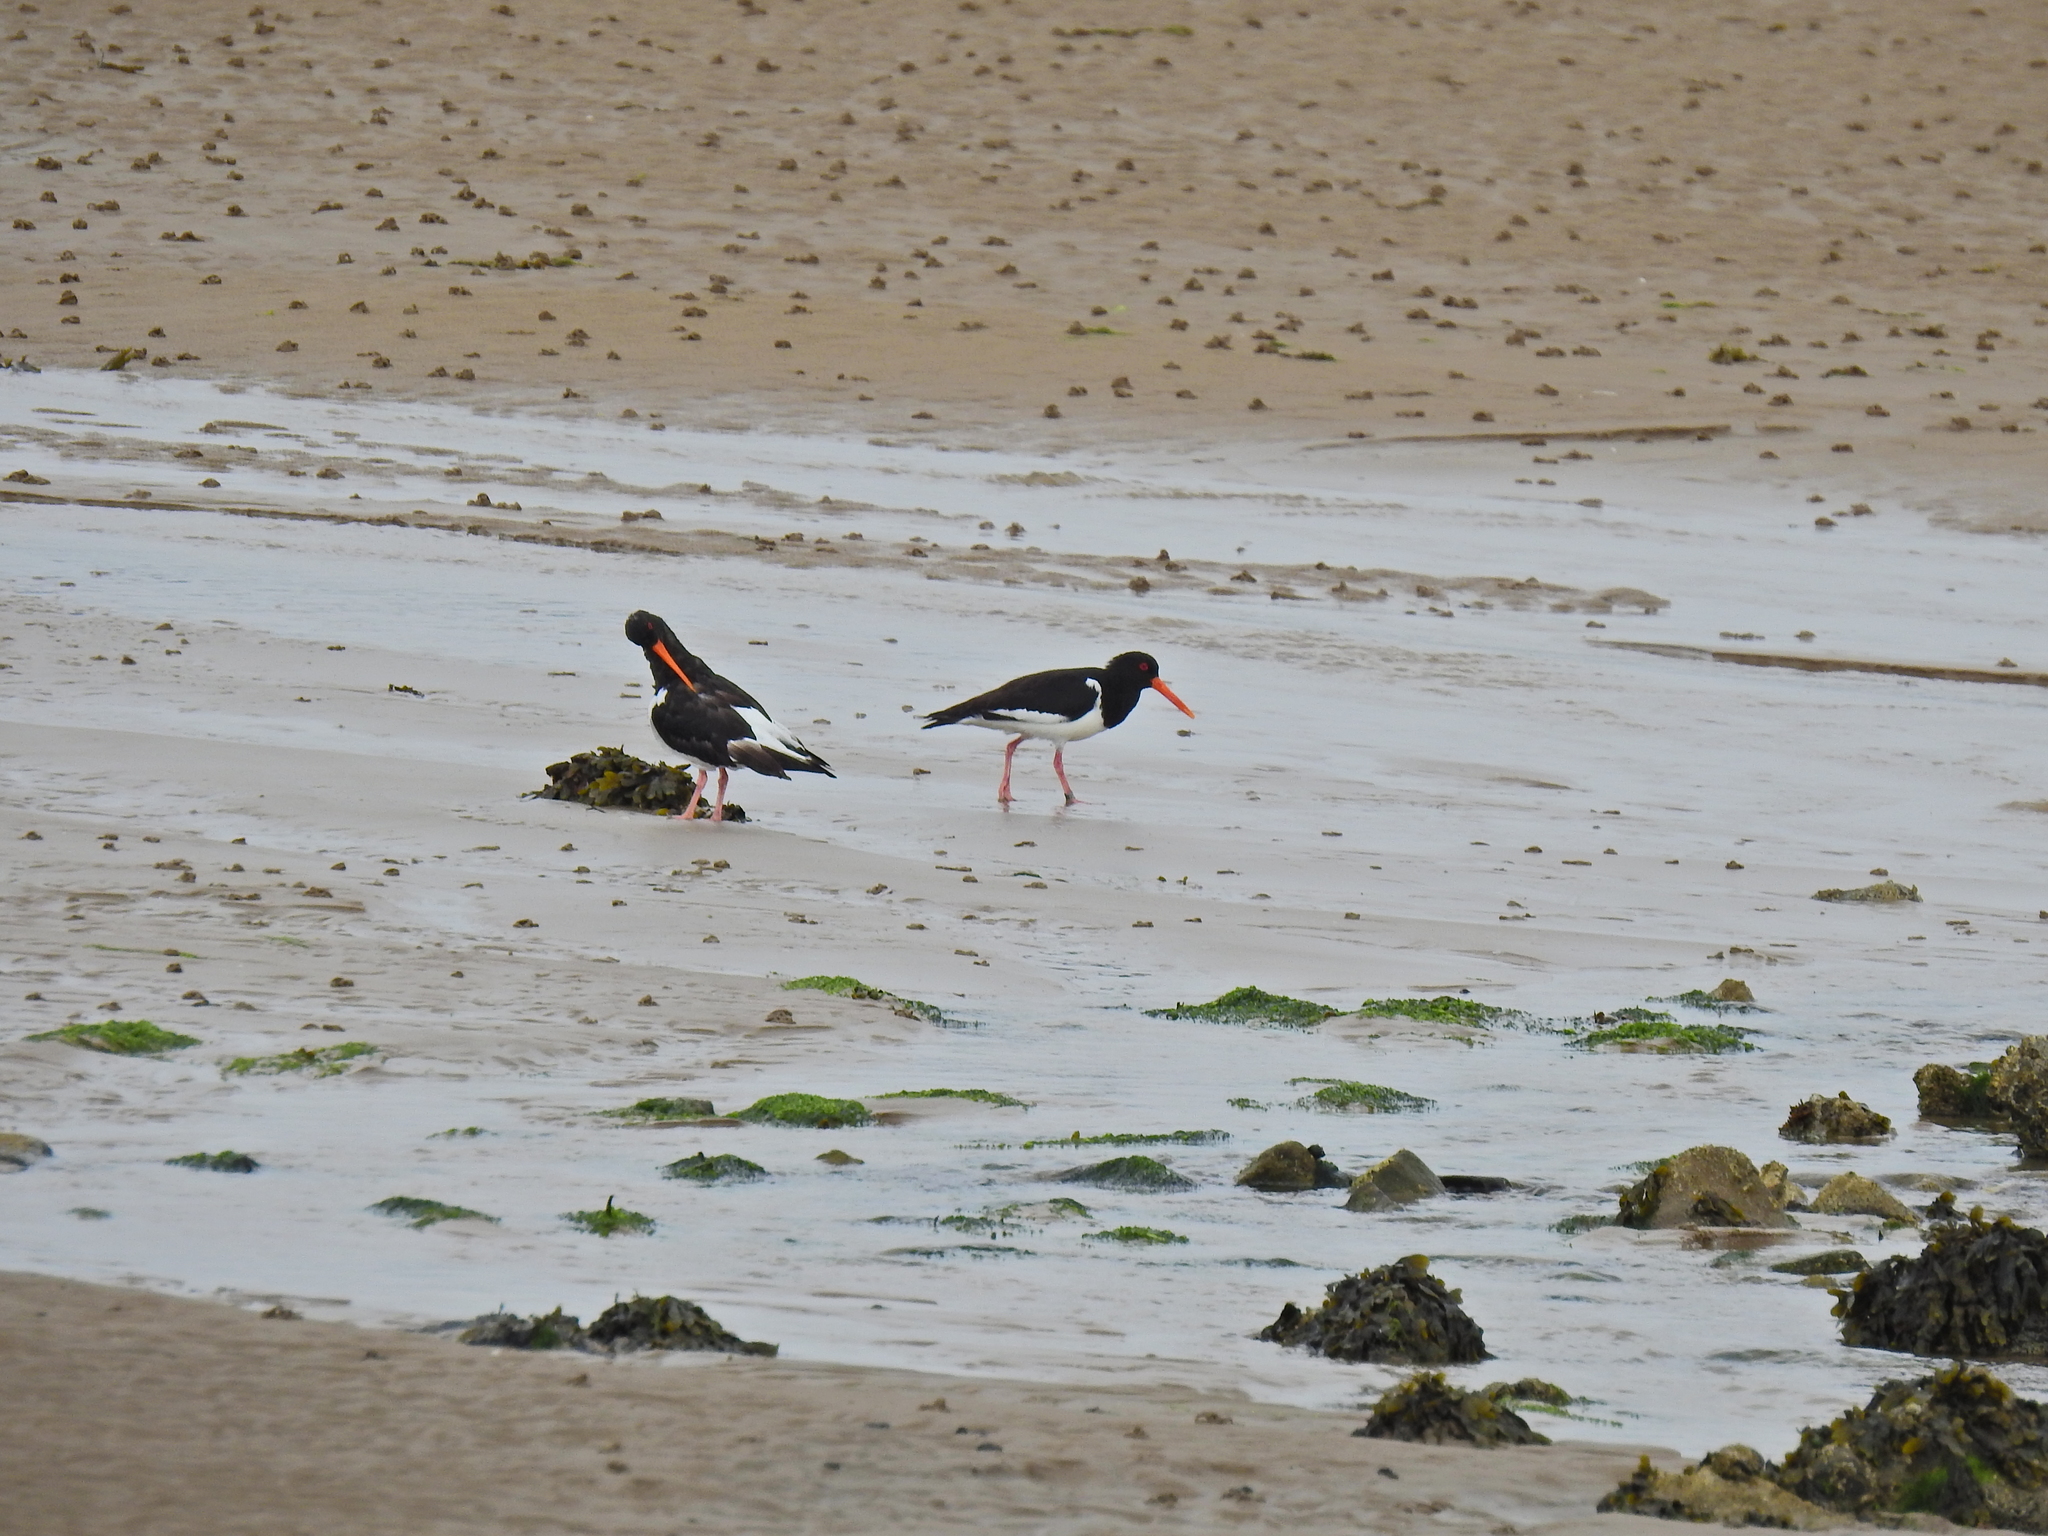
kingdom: Animalia
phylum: Chordata
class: Aves
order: Charadriiformes
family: Haematopodidae
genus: Haematopus
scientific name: Haematopus ostralegus
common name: Eurasian oystercatcher
